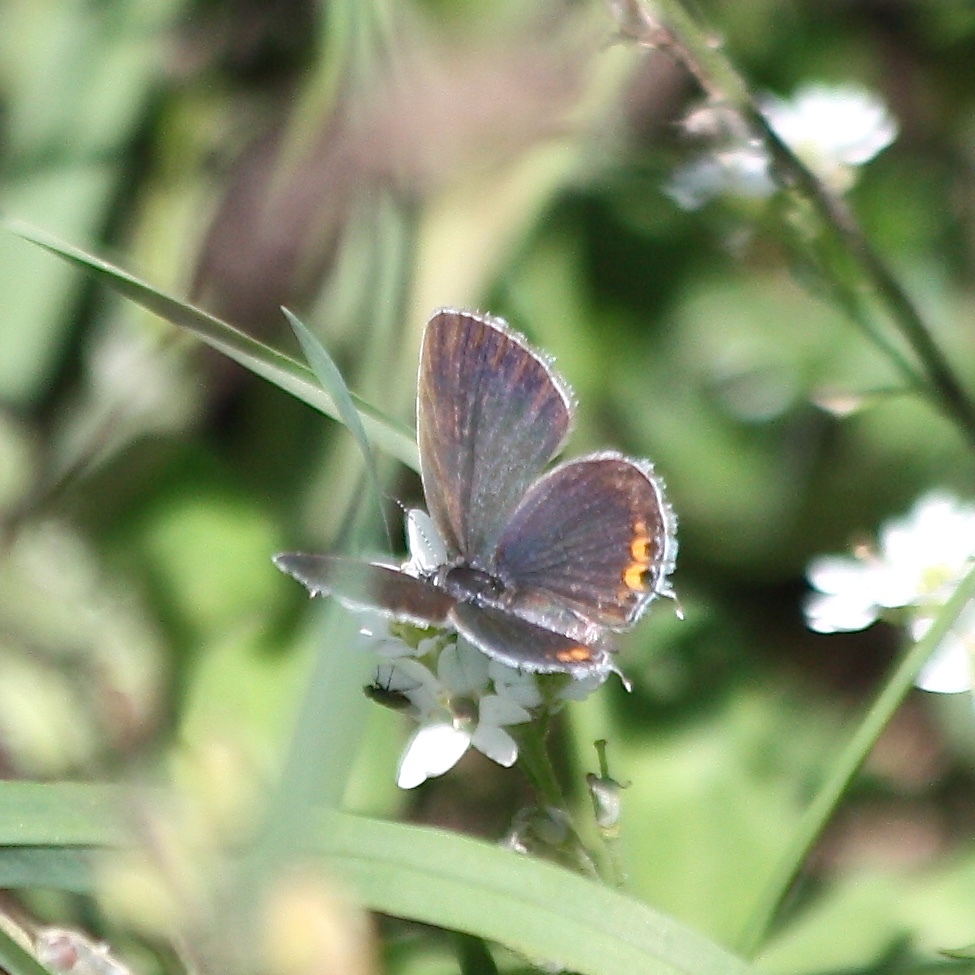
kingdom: Animalia
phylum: Arthropoda
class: Insecta
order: Lepidoptera
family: Lycaenidae
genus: Elkalyce
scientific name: Elkalyce comyntas
